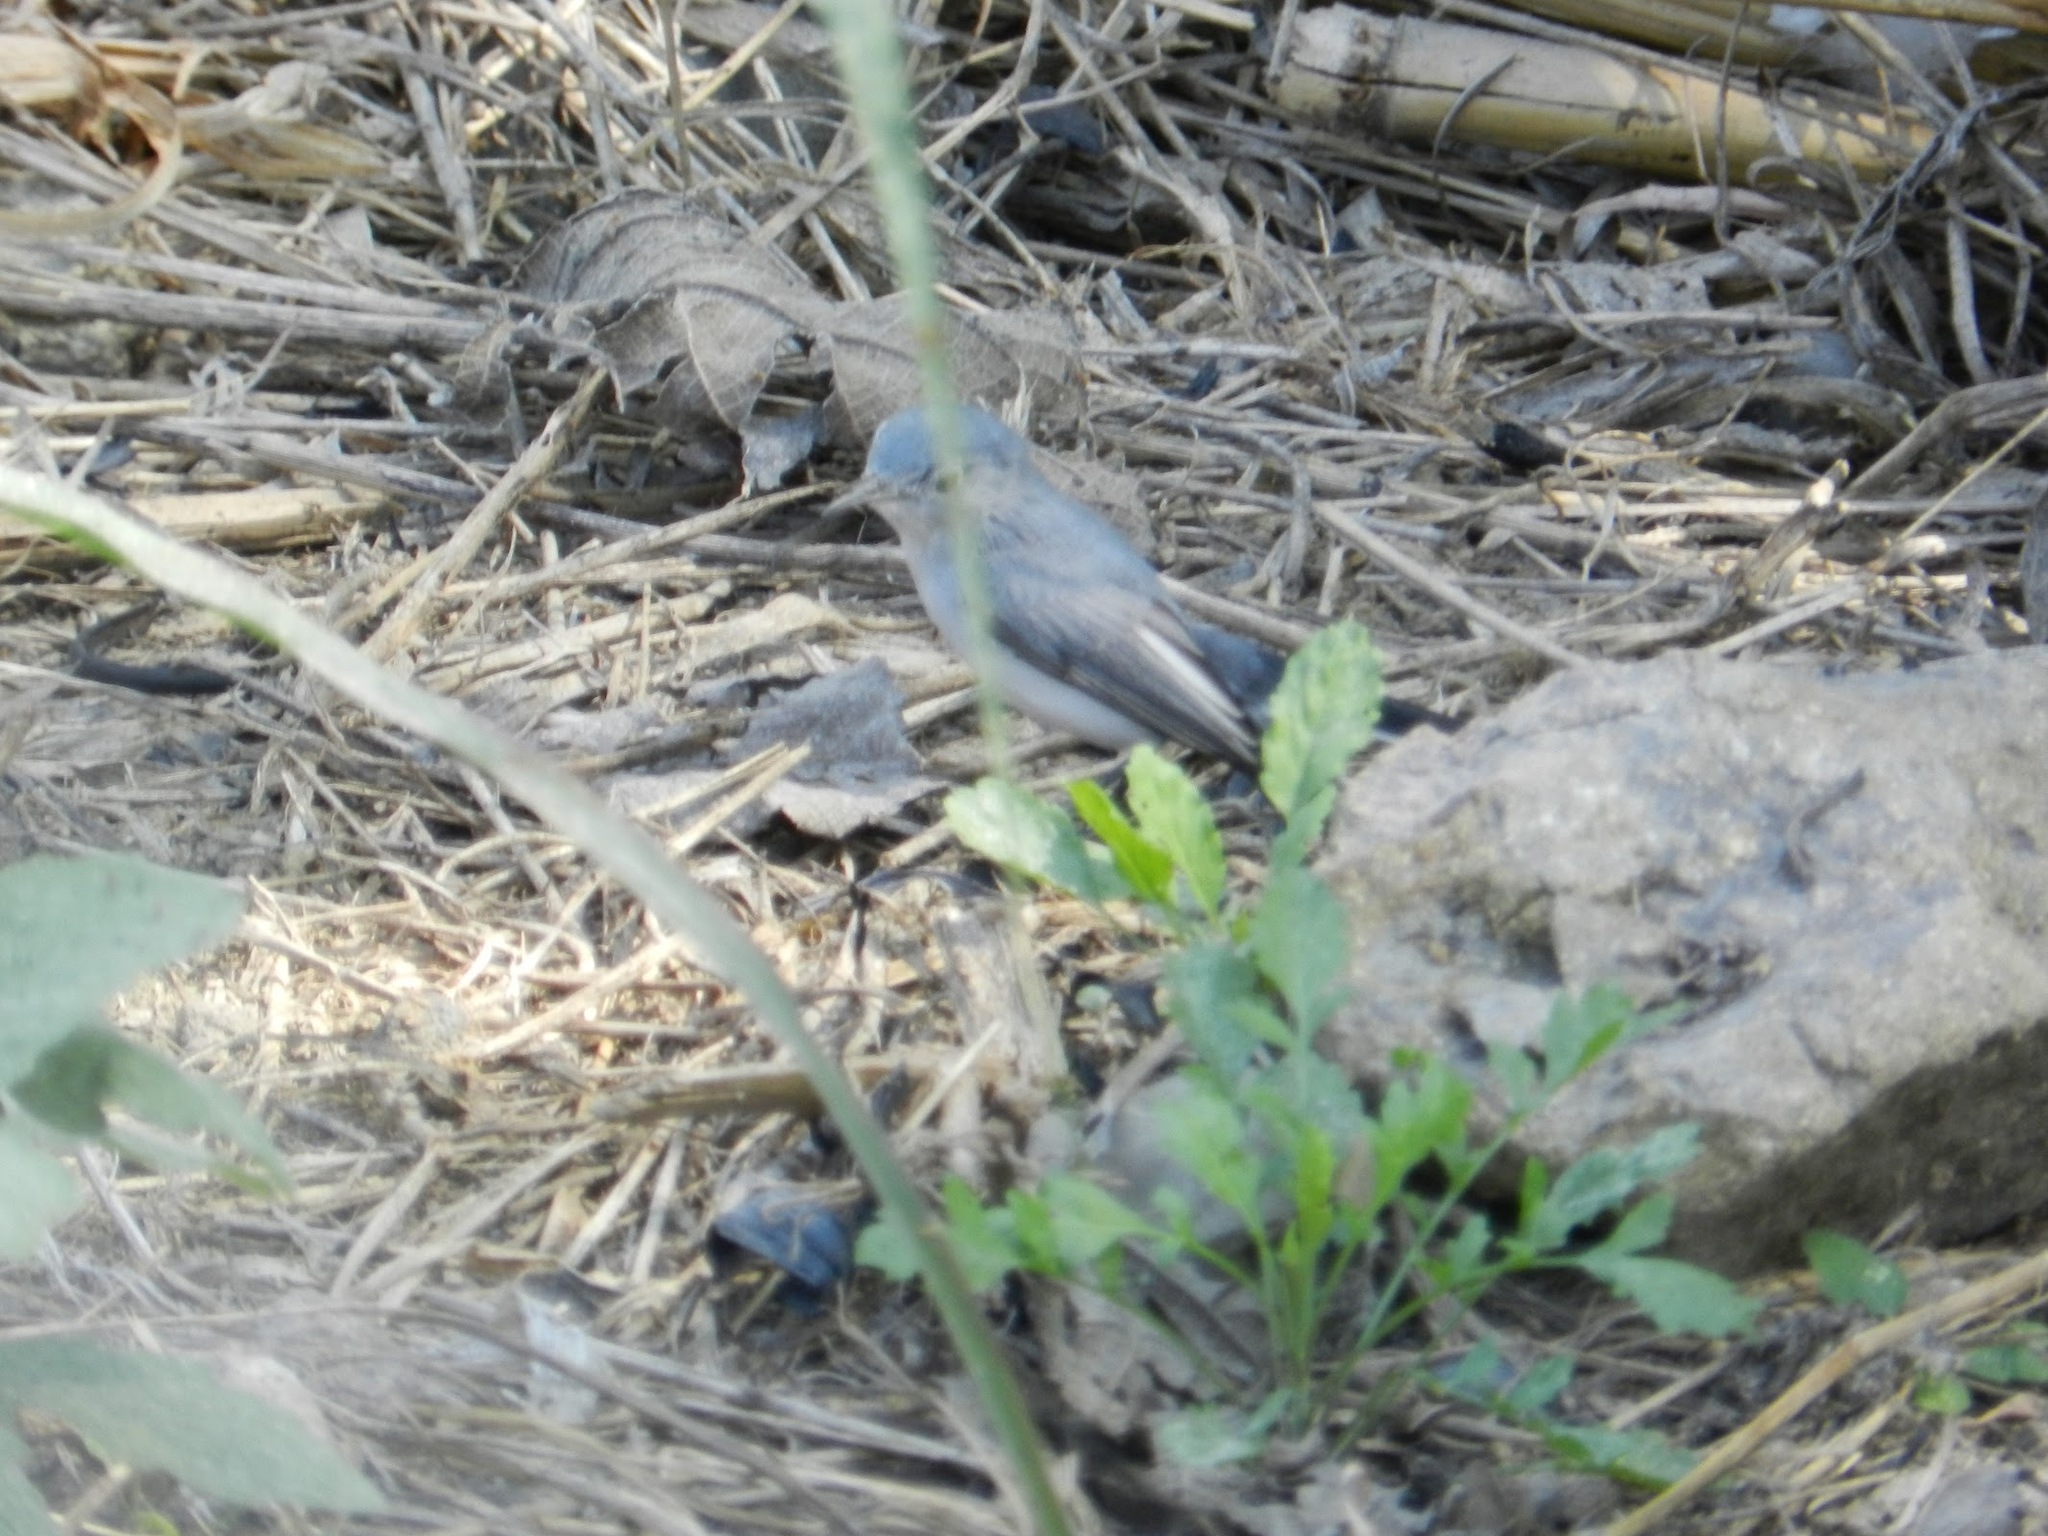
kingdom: Animalia
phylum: Chordata
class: Aves
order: Passeriformes
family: Polioptilidae
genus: Polioptila
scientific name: Polioptila caerulea
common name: Blue-gray gnatcatcher
